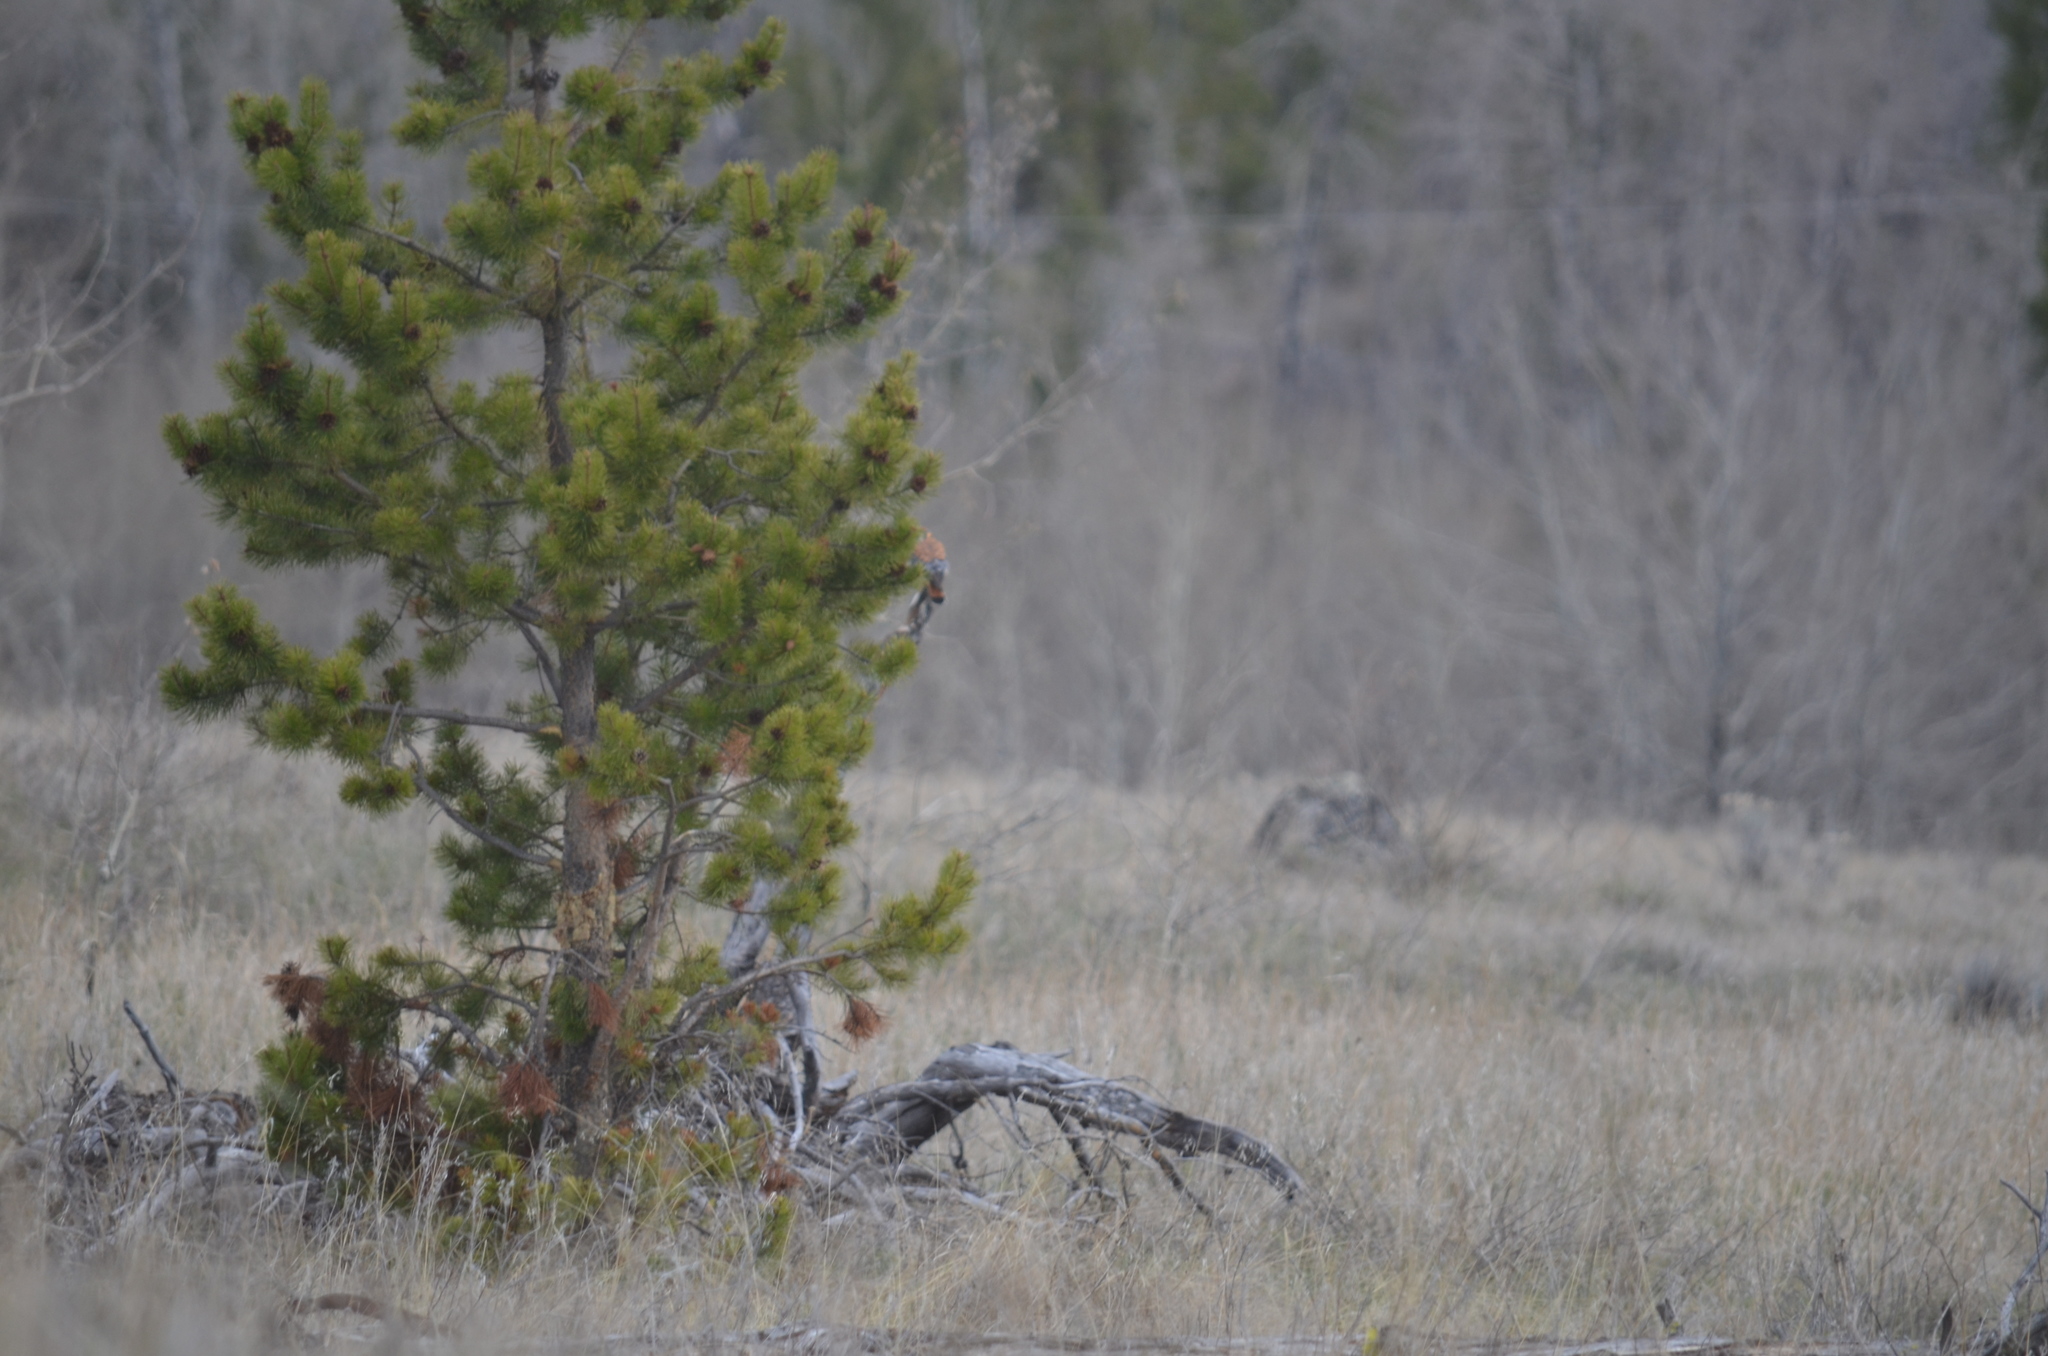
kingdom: Animalia
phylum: Chordata
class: Aves
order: Falconiformes
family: Falconidae
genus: Falco
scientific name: Falco sparverius
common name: American kestrel
